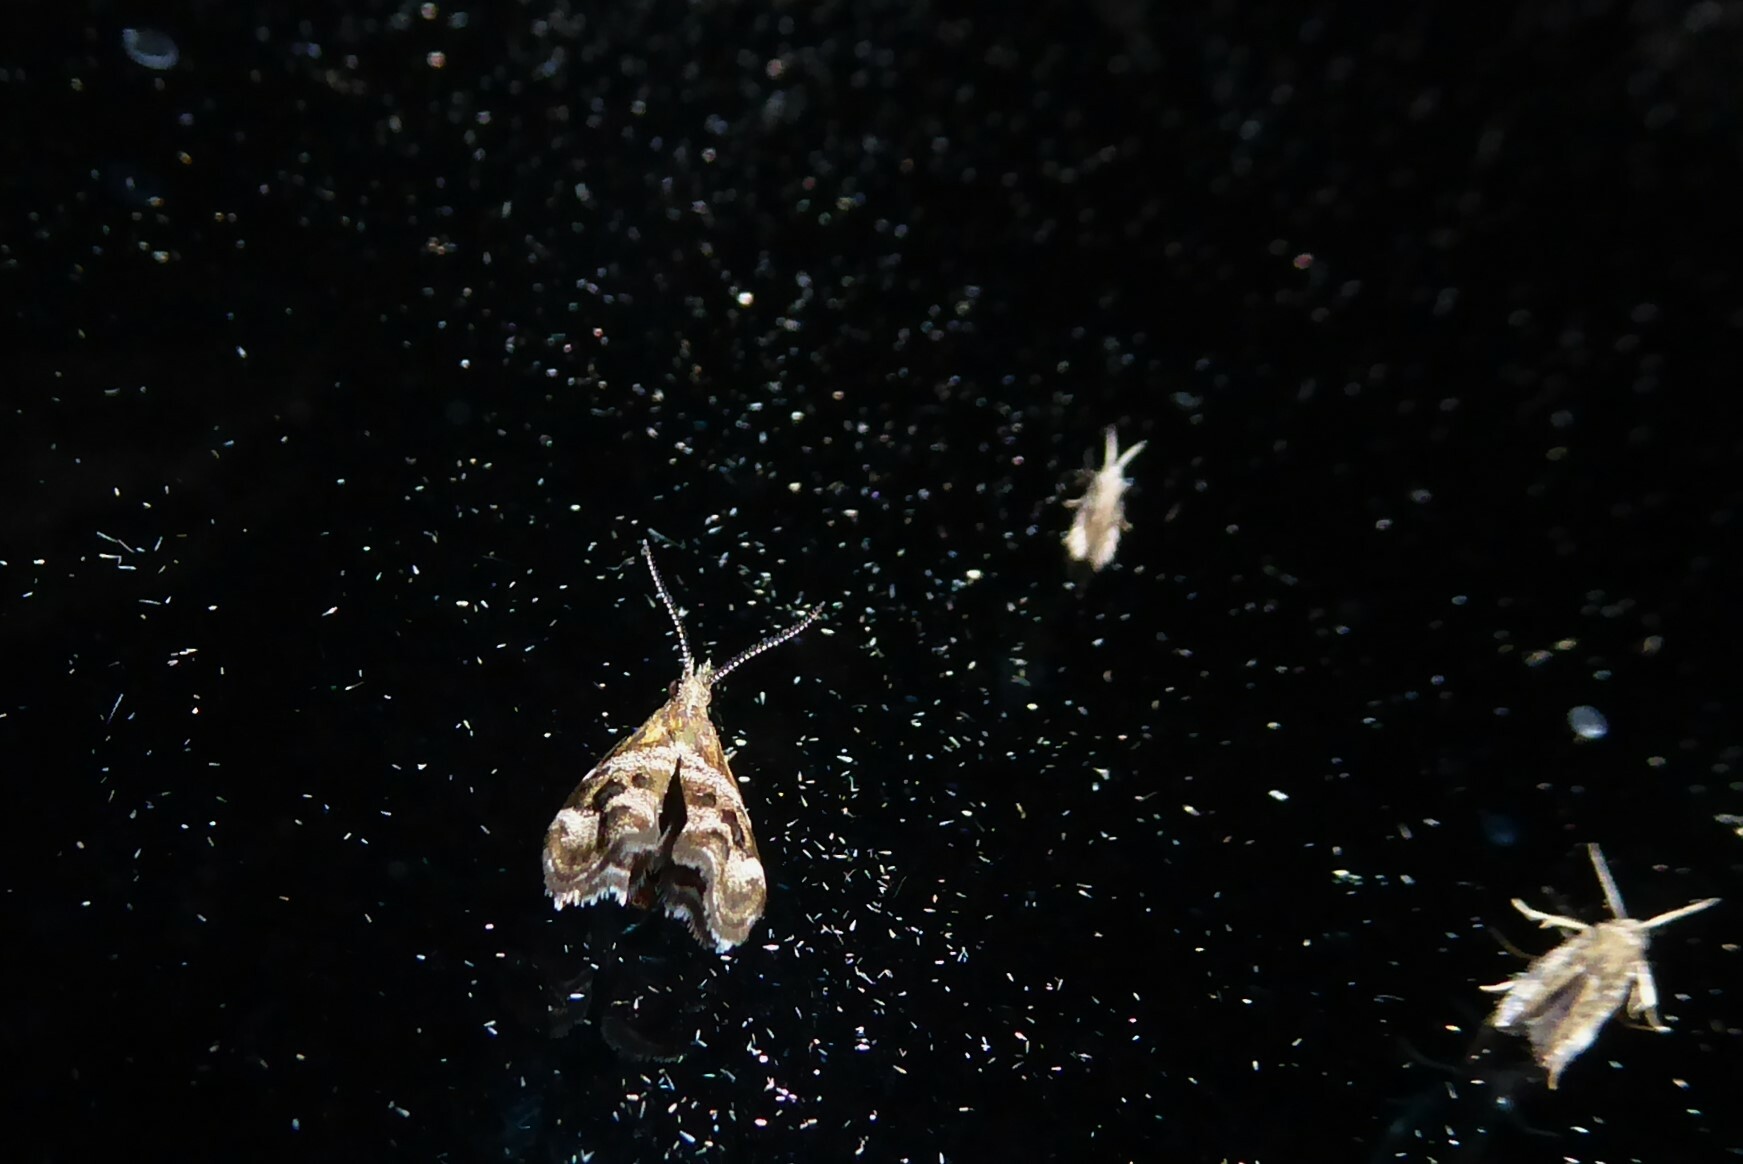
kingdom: Animalia
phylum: Arthropoda
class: Insecta
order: Lepidoptera
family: Choreutidae
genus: Tebenna
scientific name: Tebenna micalis
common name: Vagrant twitcher
